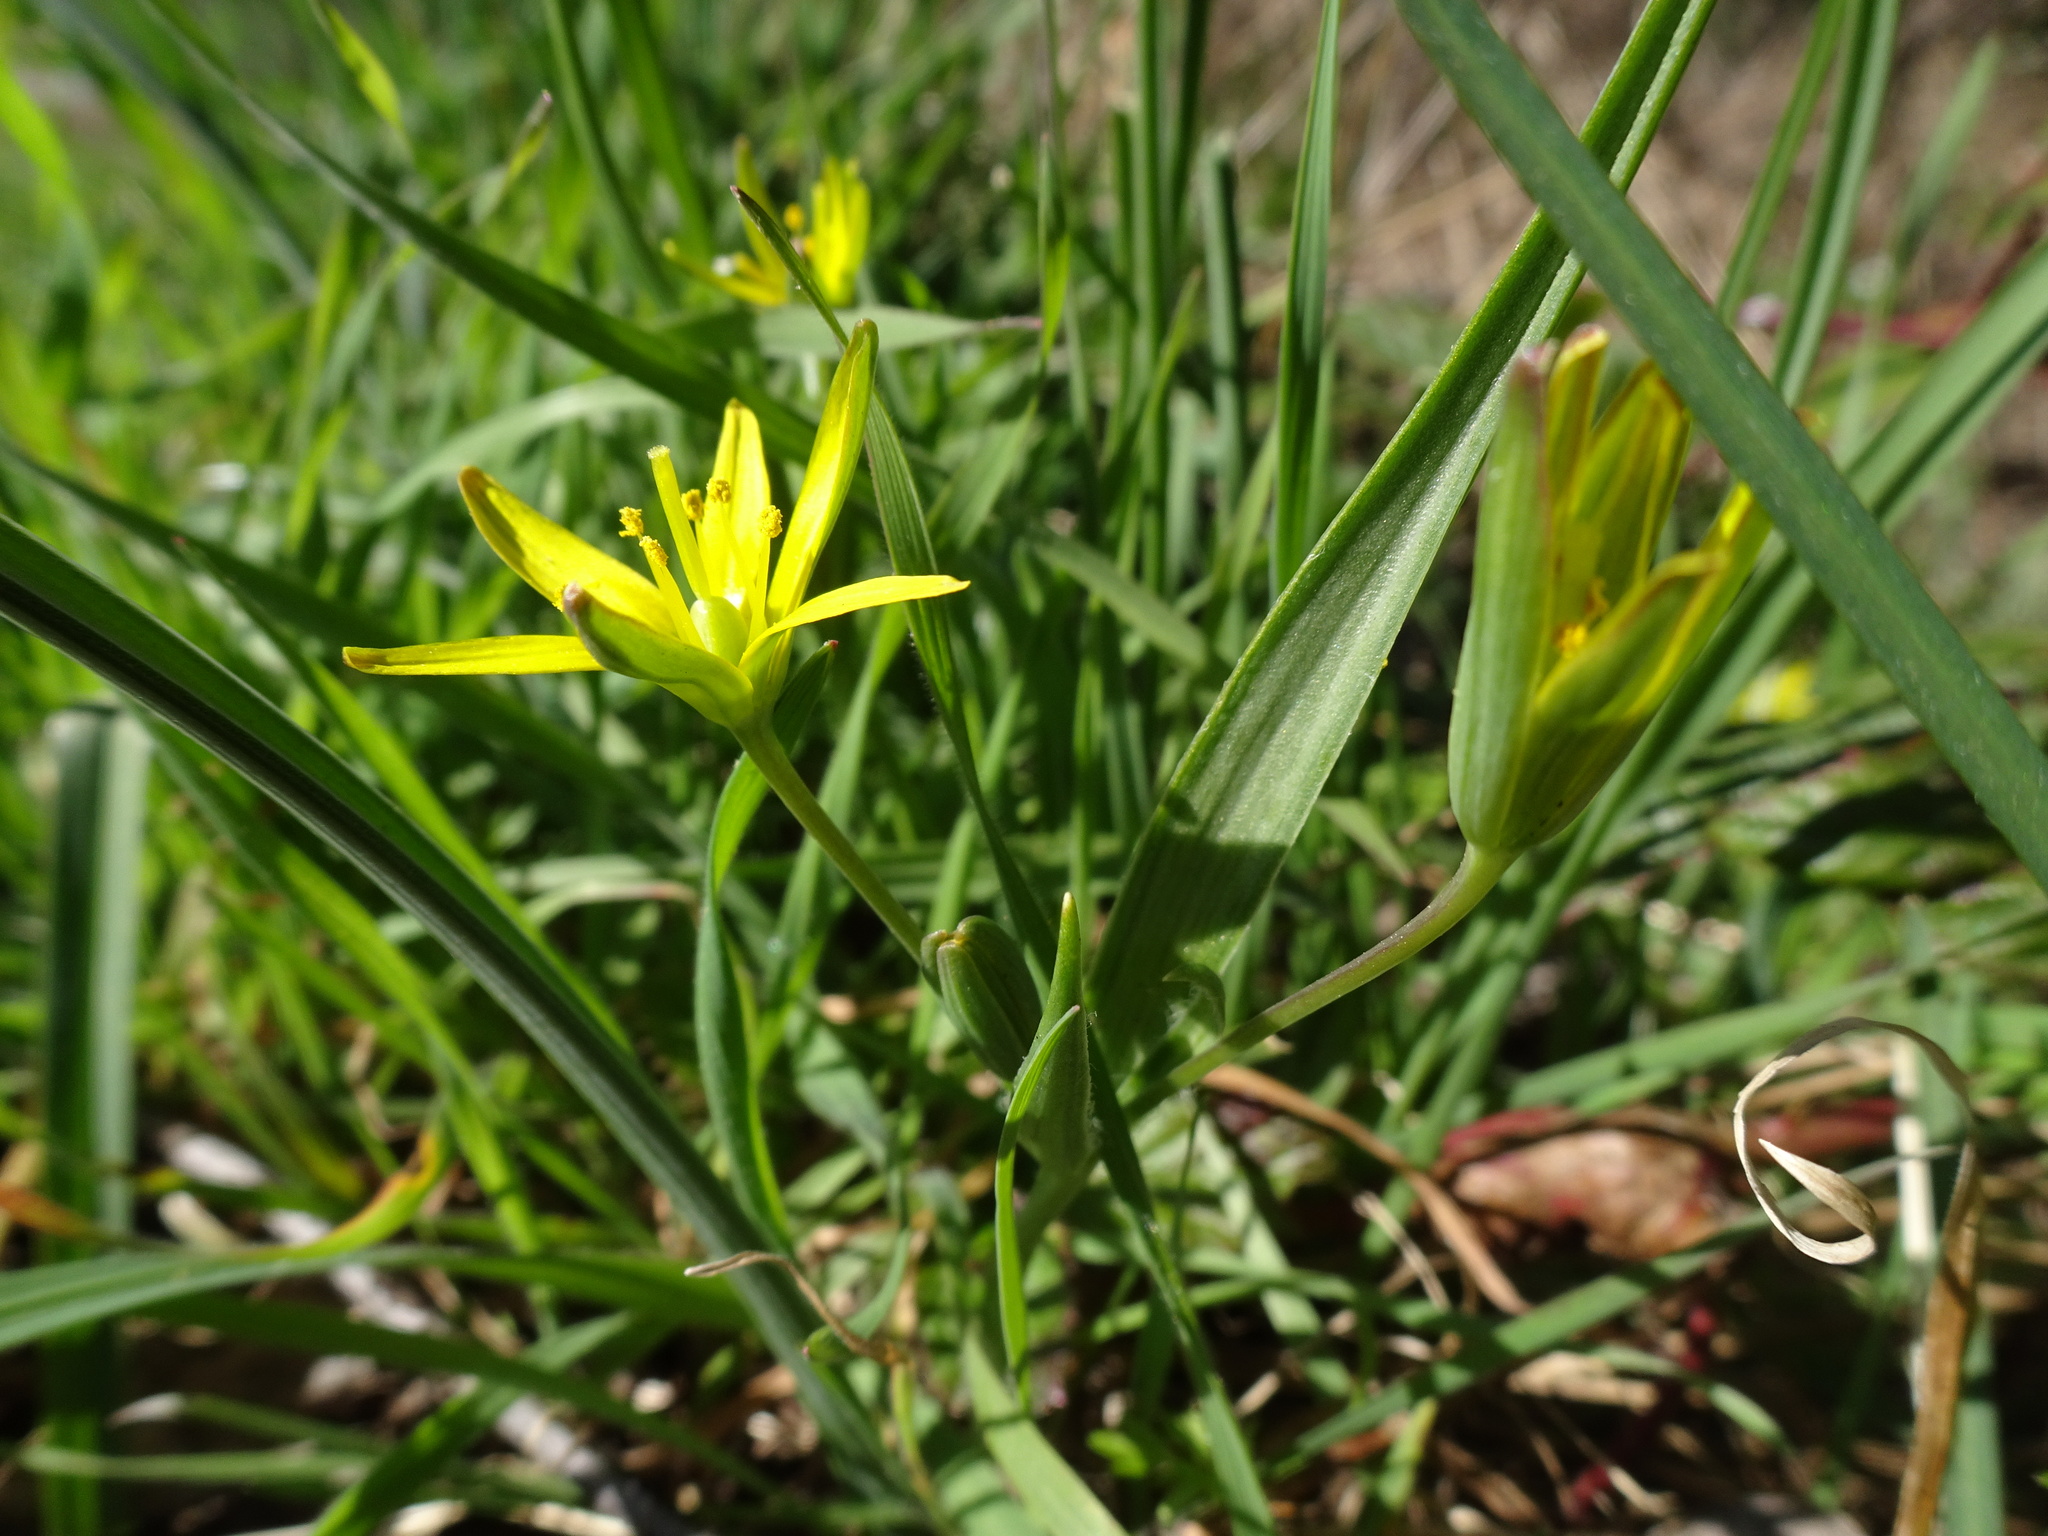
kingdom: Plantae
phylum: Tracheophyta
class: Liliopsida
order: Liliales
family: Liliaceae
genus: Gagea
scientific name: Gagea lutea
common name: Yellow star-of-bethlehem
